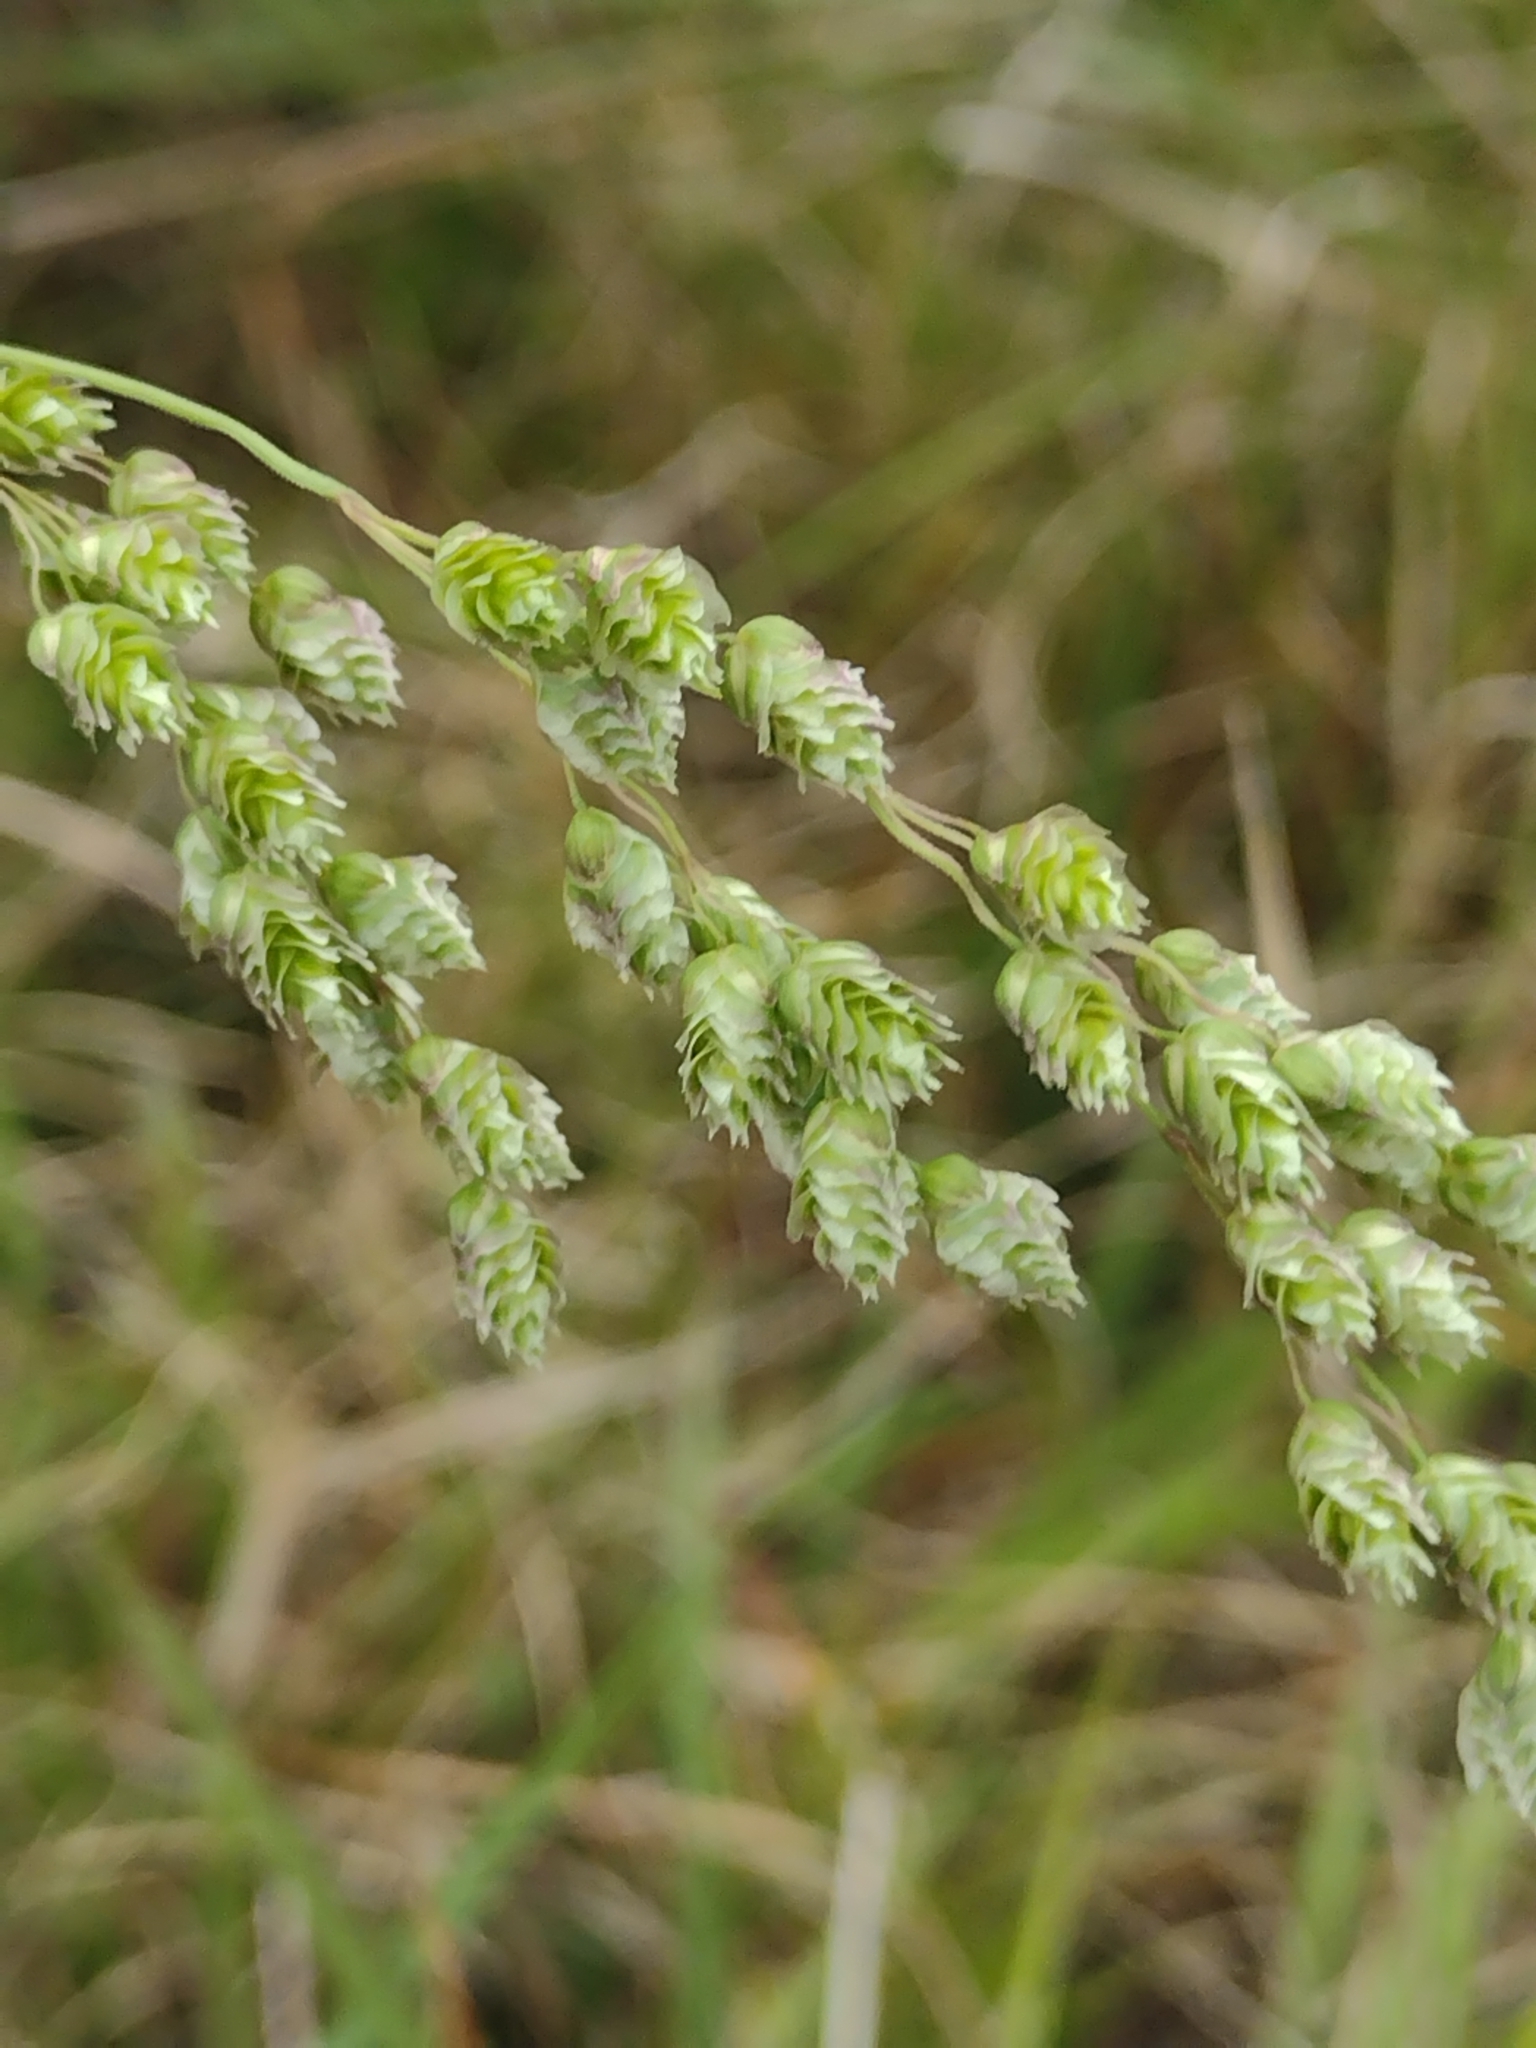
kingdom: Plantae
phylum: Tracheophyta
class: Liliopsida
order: Poales
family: Poaceae
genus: Chascolytrum
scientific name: Chascolytrum subaristatum
